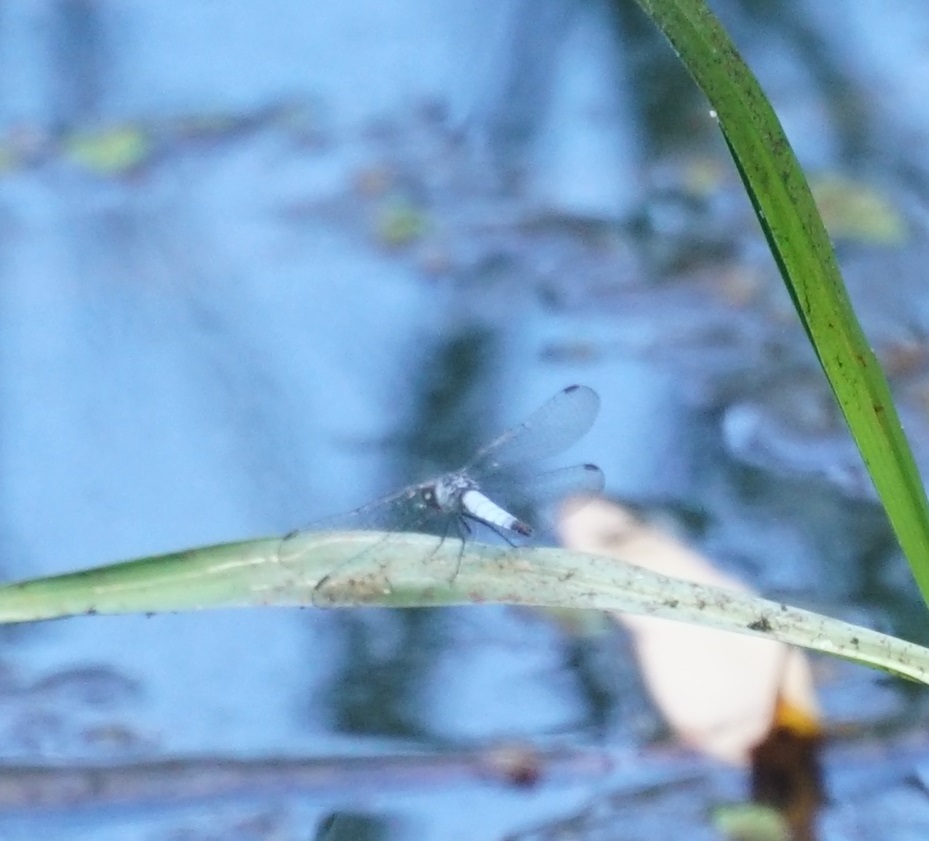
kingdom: Animalia
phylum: Arthropoda
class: Insecta
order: Odonata
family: Libellulidae
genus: Brachydiplax
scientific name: Brachydiplax denticauda
